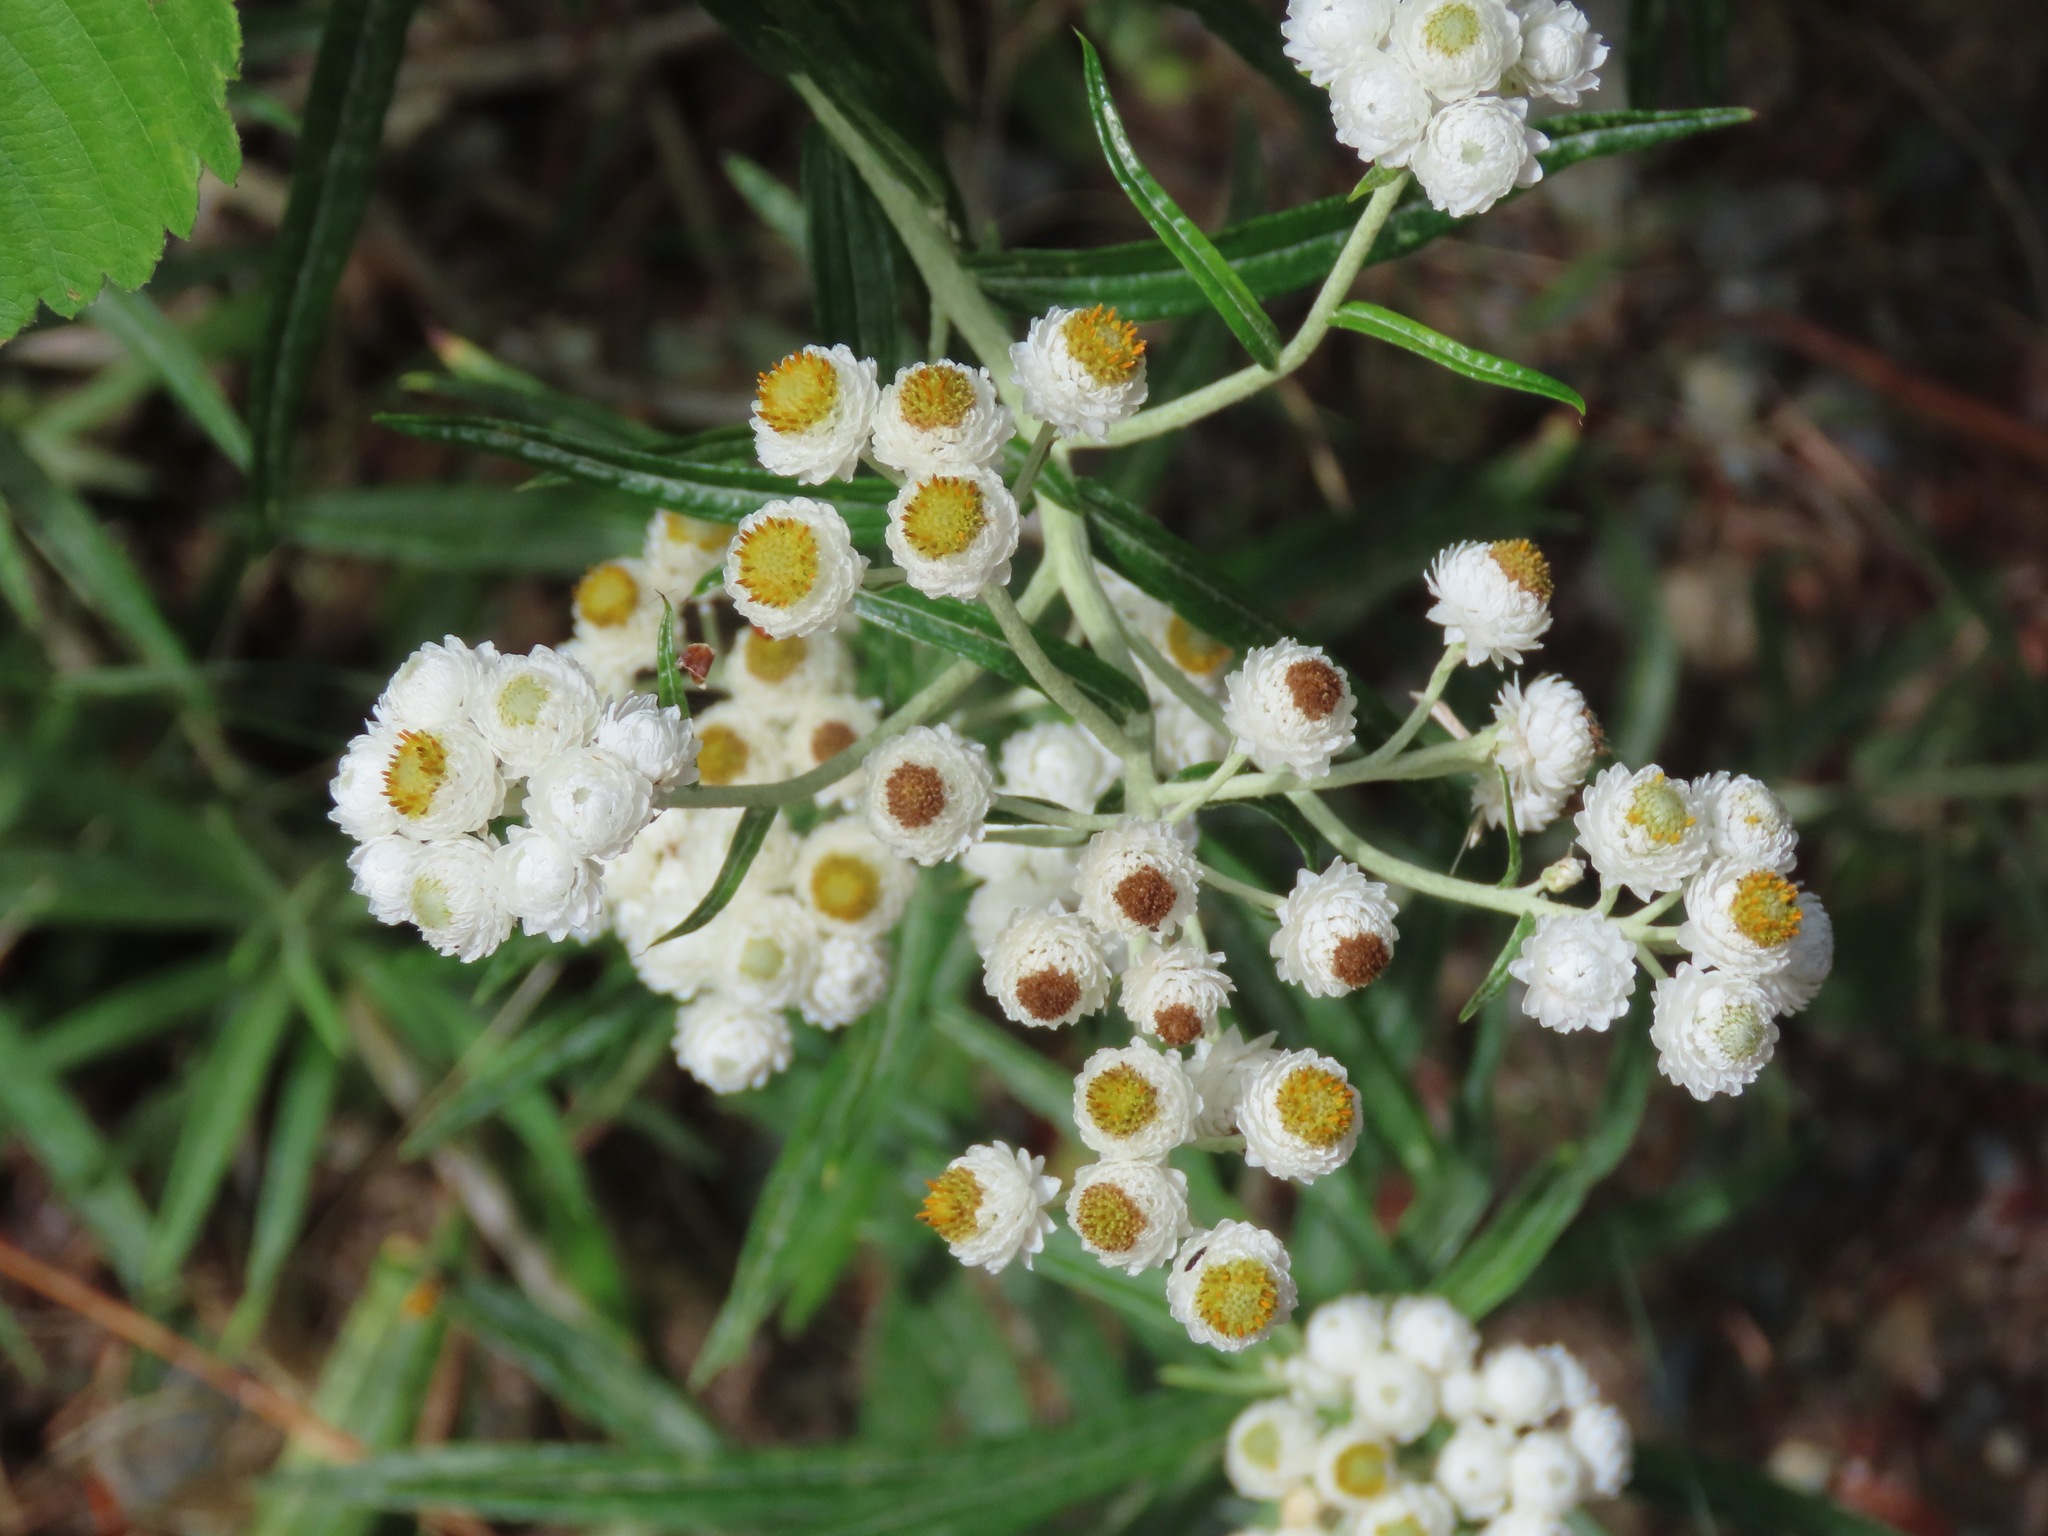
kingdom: Plantae
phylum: Tracheophyta
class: Magnoliopsida
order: Asterales
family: Asteraceae
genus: Anaphalis
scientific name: Anaphalis margaritacea
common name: Pearly everlasting
